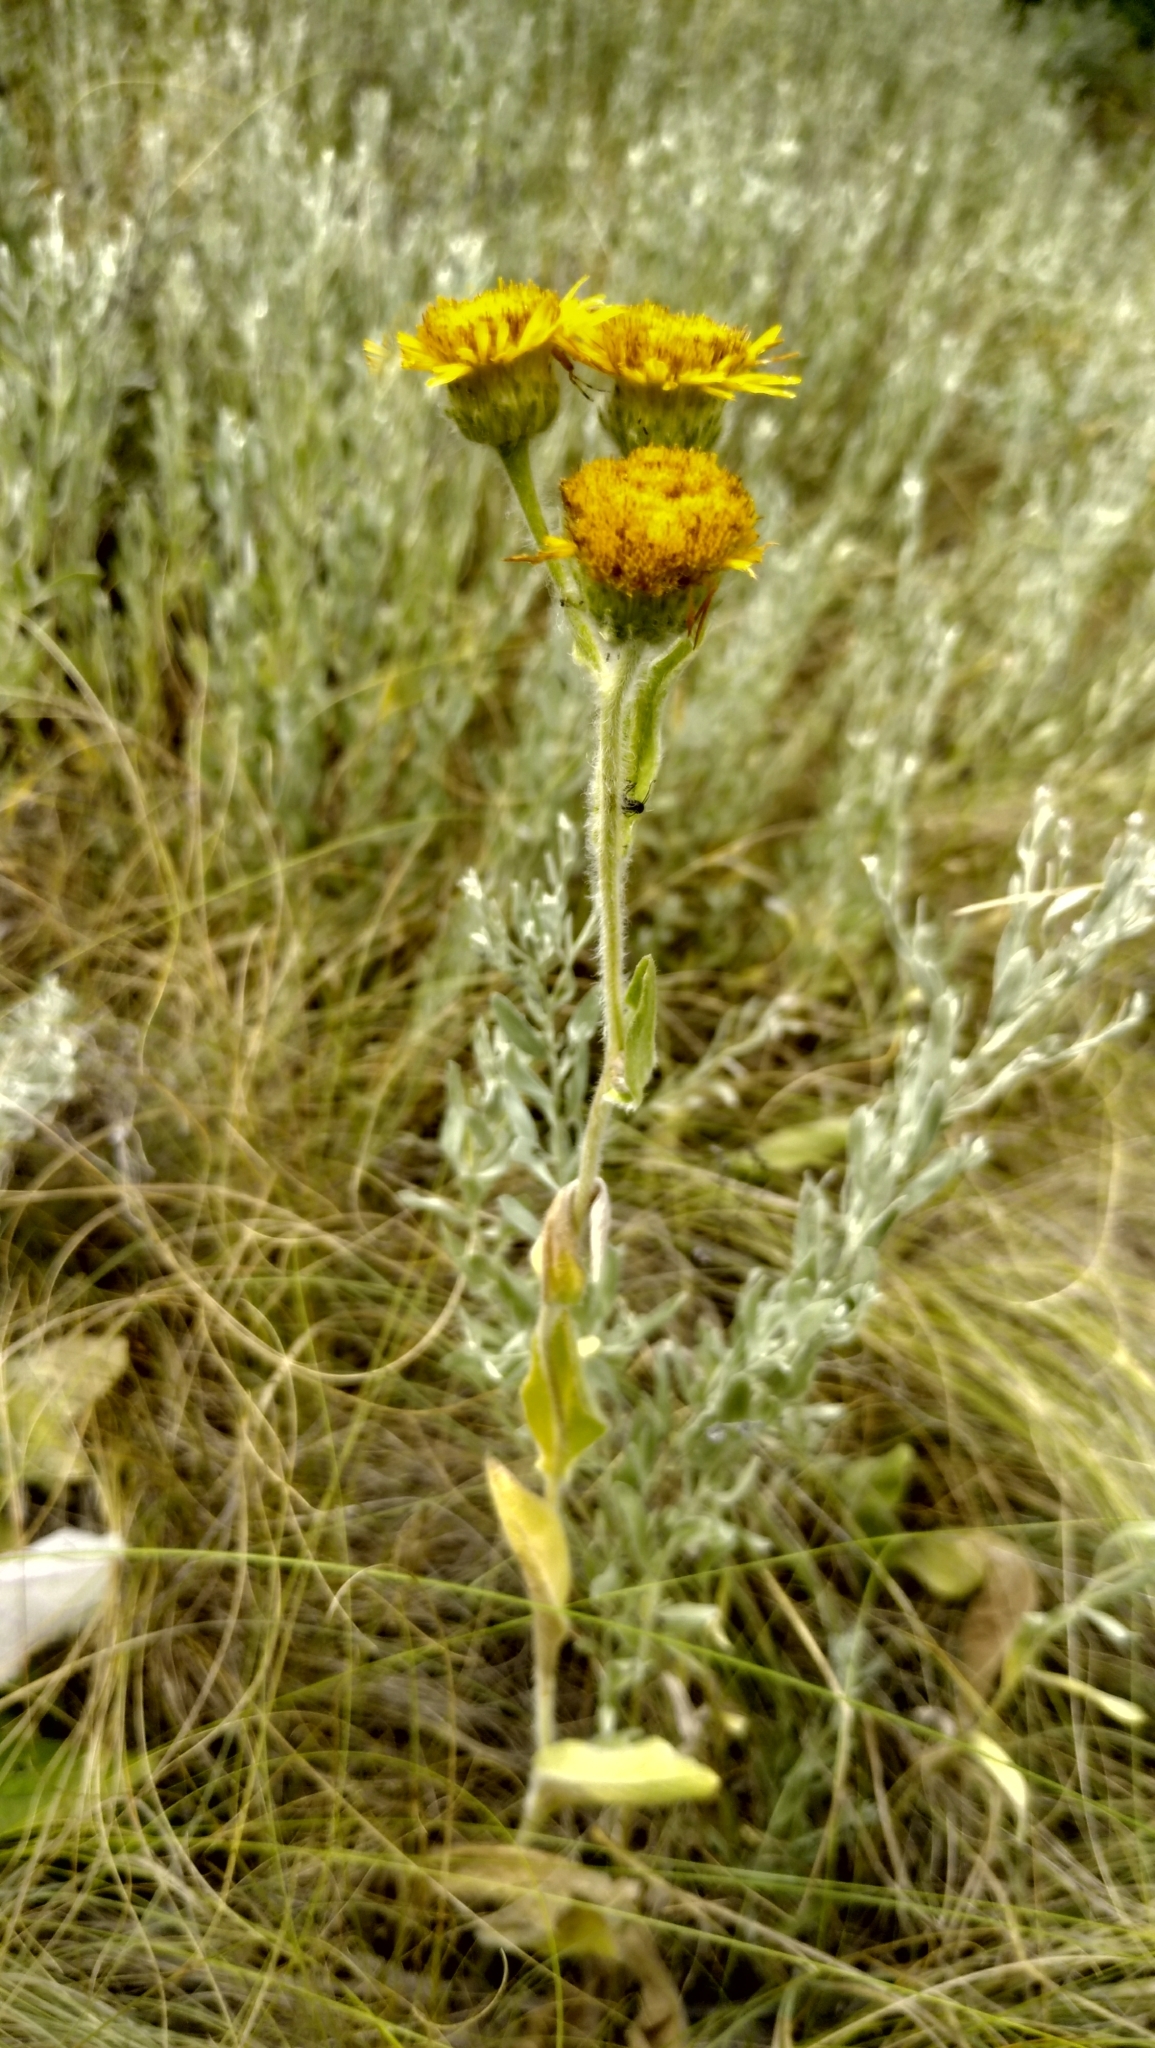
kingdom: Plantae
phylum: Tracheophyta
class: Magnoliopsida
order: Asterales
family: Asteraceae
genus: Pentanema
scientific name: Pentanema oculus-christi
